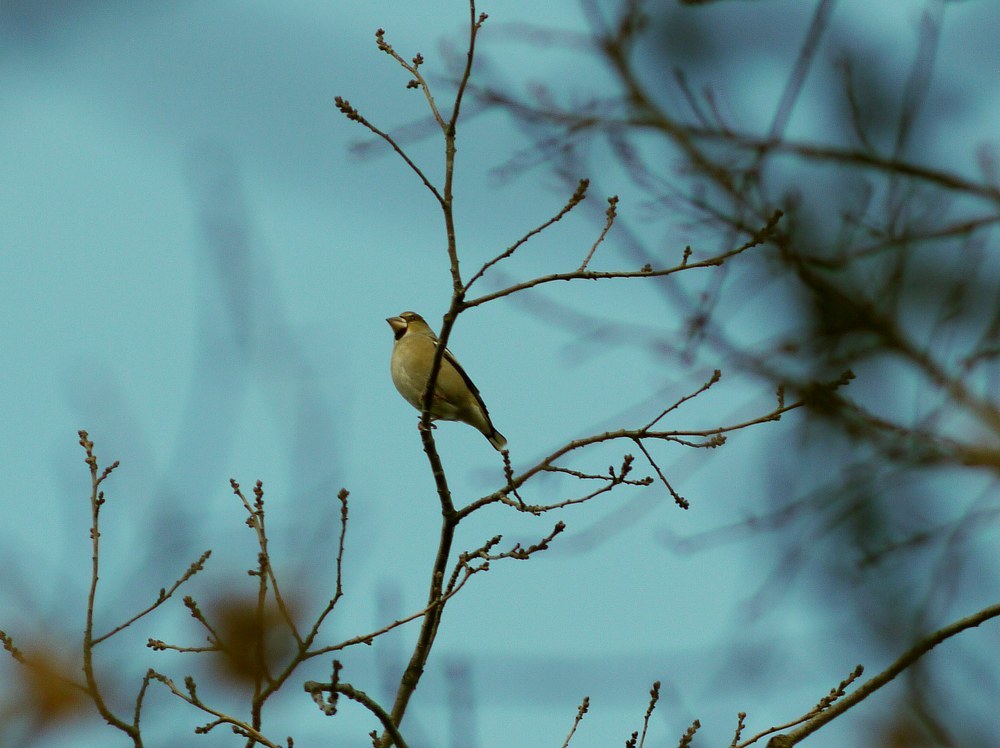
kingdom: Animalia
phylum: Chordata
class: Aves
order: Passeriformes
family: Fringillidae
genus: Coccothraustes
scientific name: Coccothraustes coccothraustes
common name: Hawfinch
